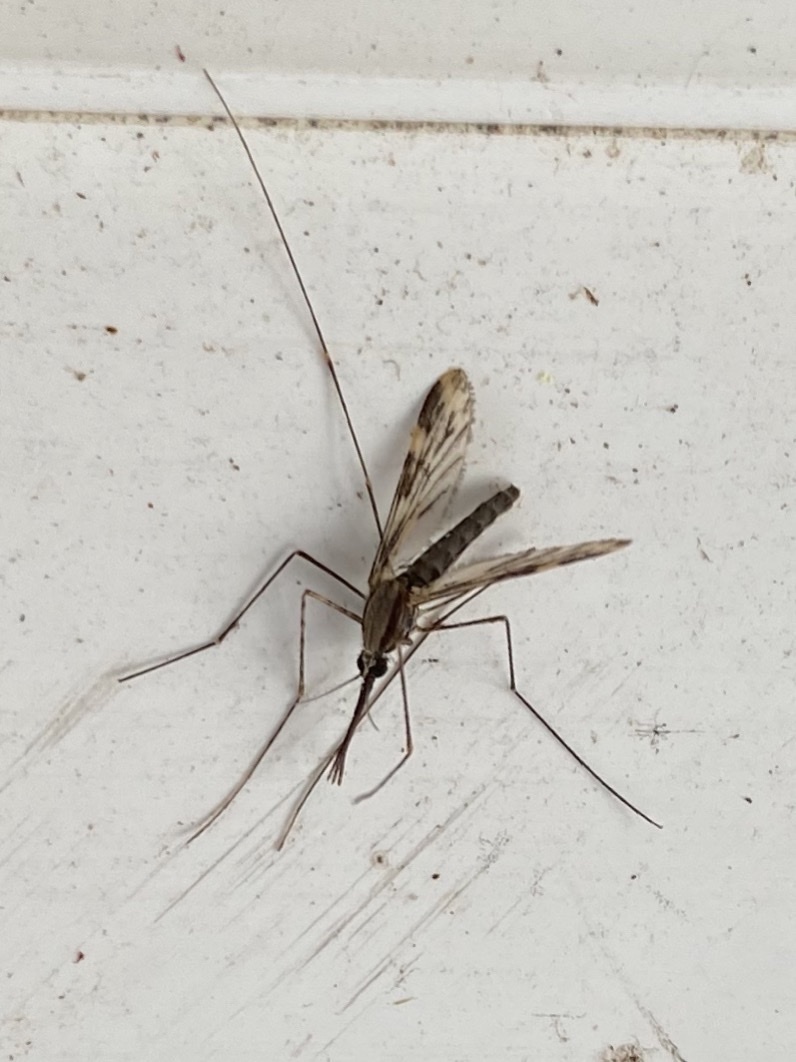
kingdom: Animalia
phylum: Arthropoda
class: Insecta
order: Diptera
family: Culicidae
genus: Anopheles
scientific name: Anopheles punctipennis
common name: Woodland malaria mosquito
